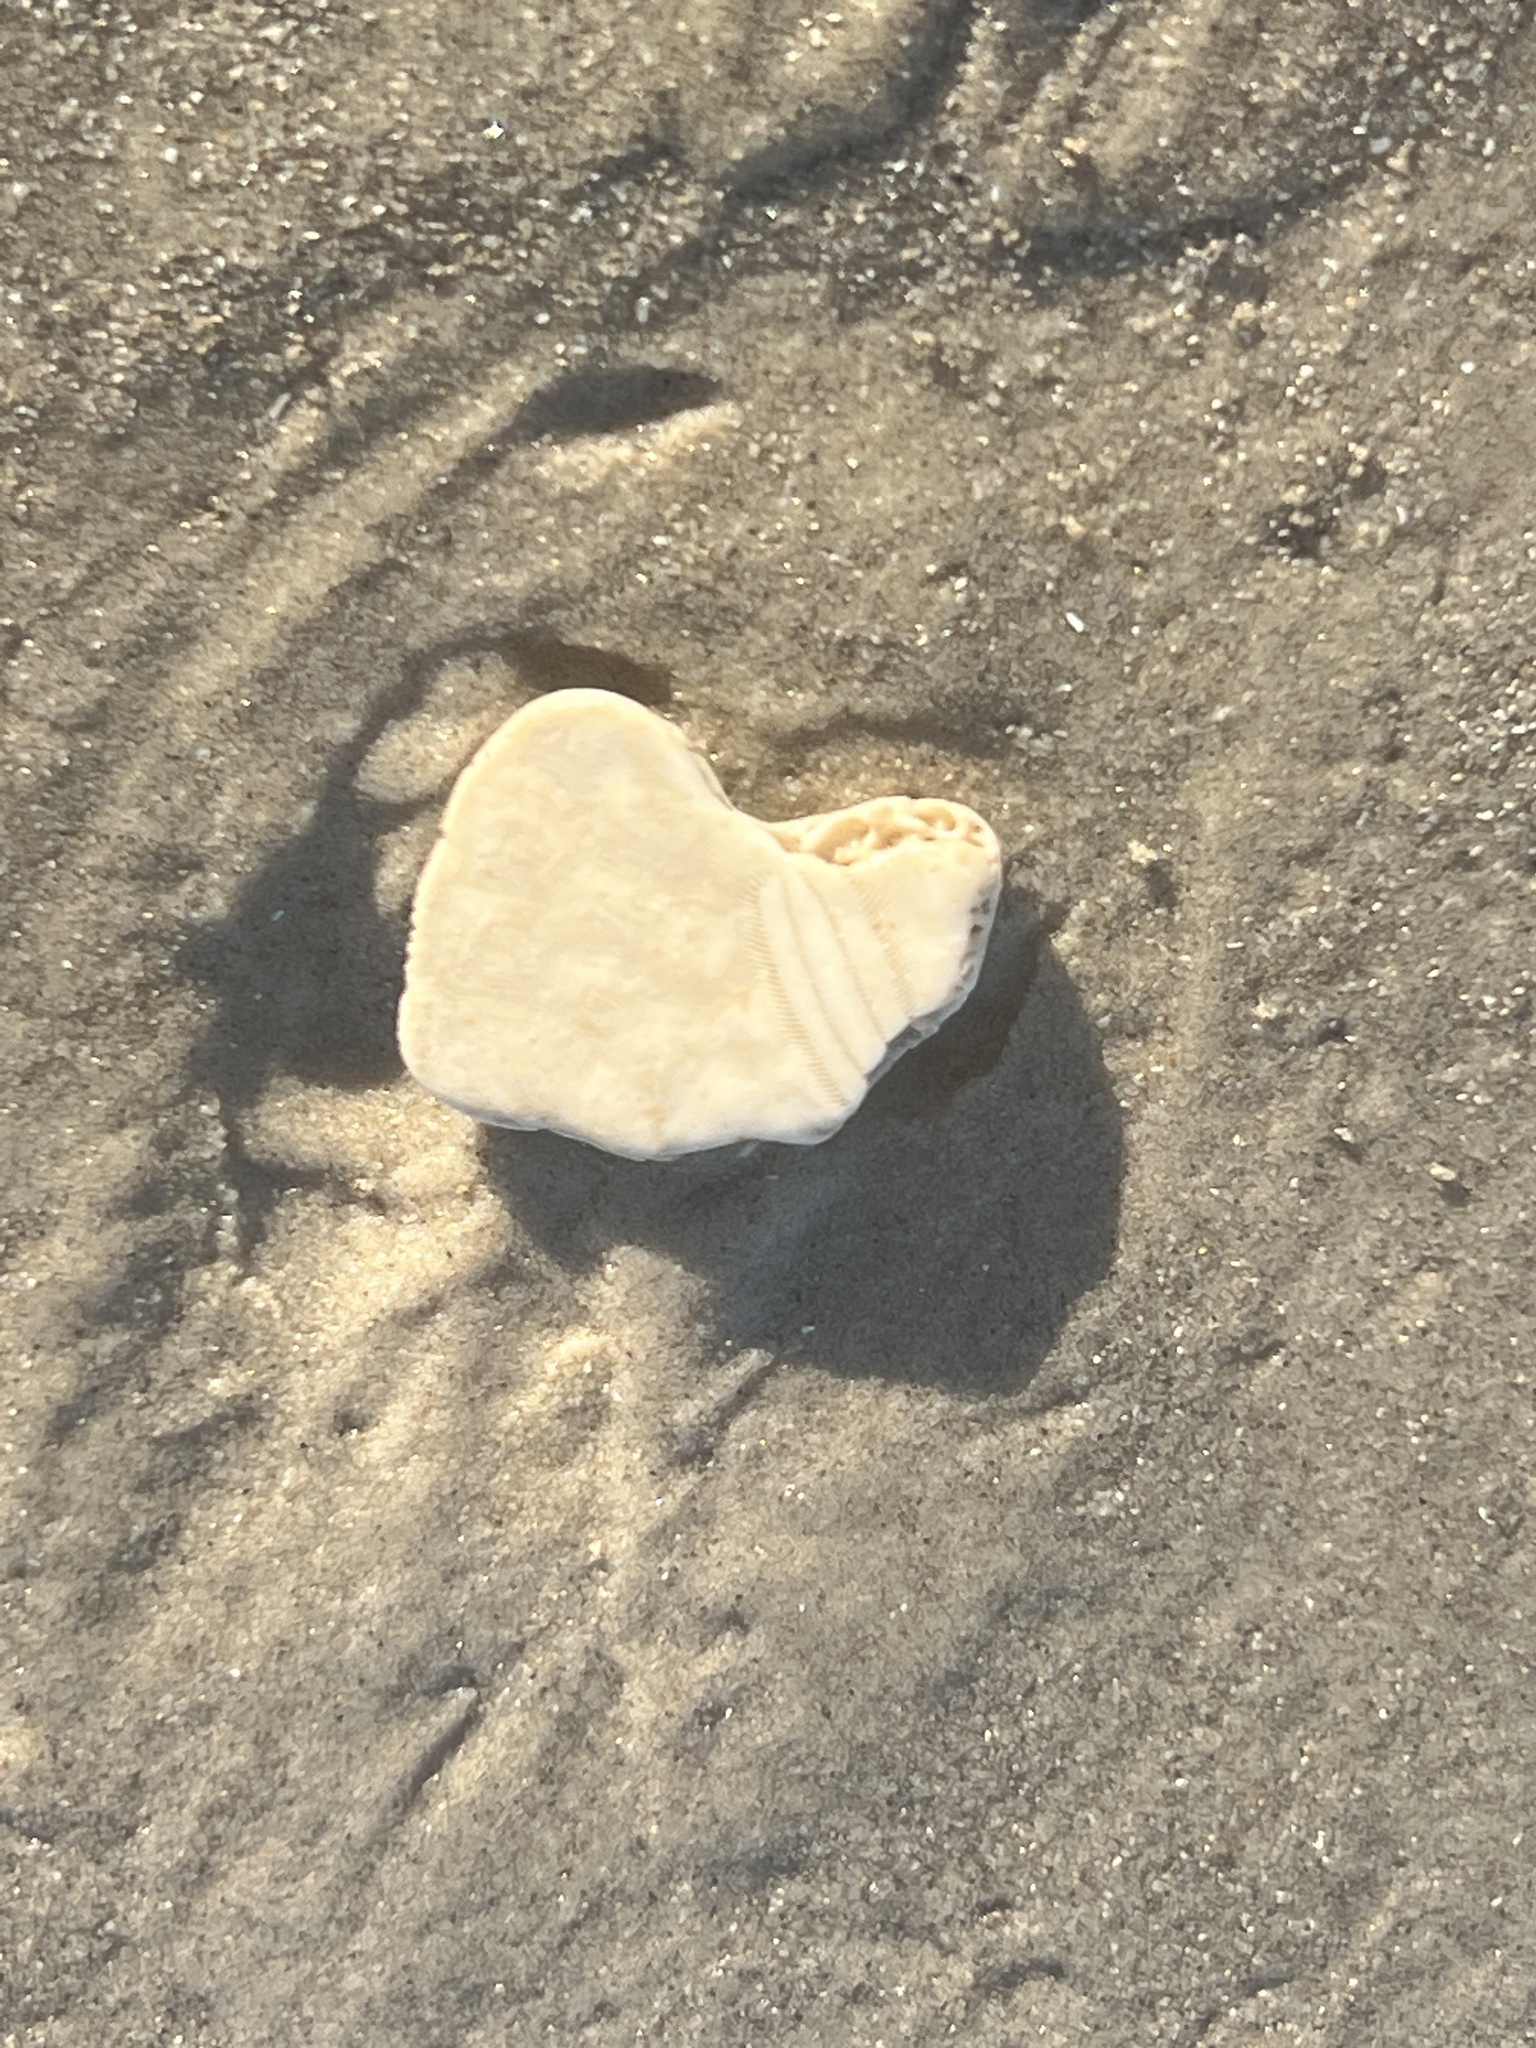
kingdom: Animalia
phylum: Echinodermata
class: Echinoidea
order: Echinolampadacea
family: Mellitidae
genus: Mellita
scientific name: Mellita quinquiesperforata
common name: Sand dollar
